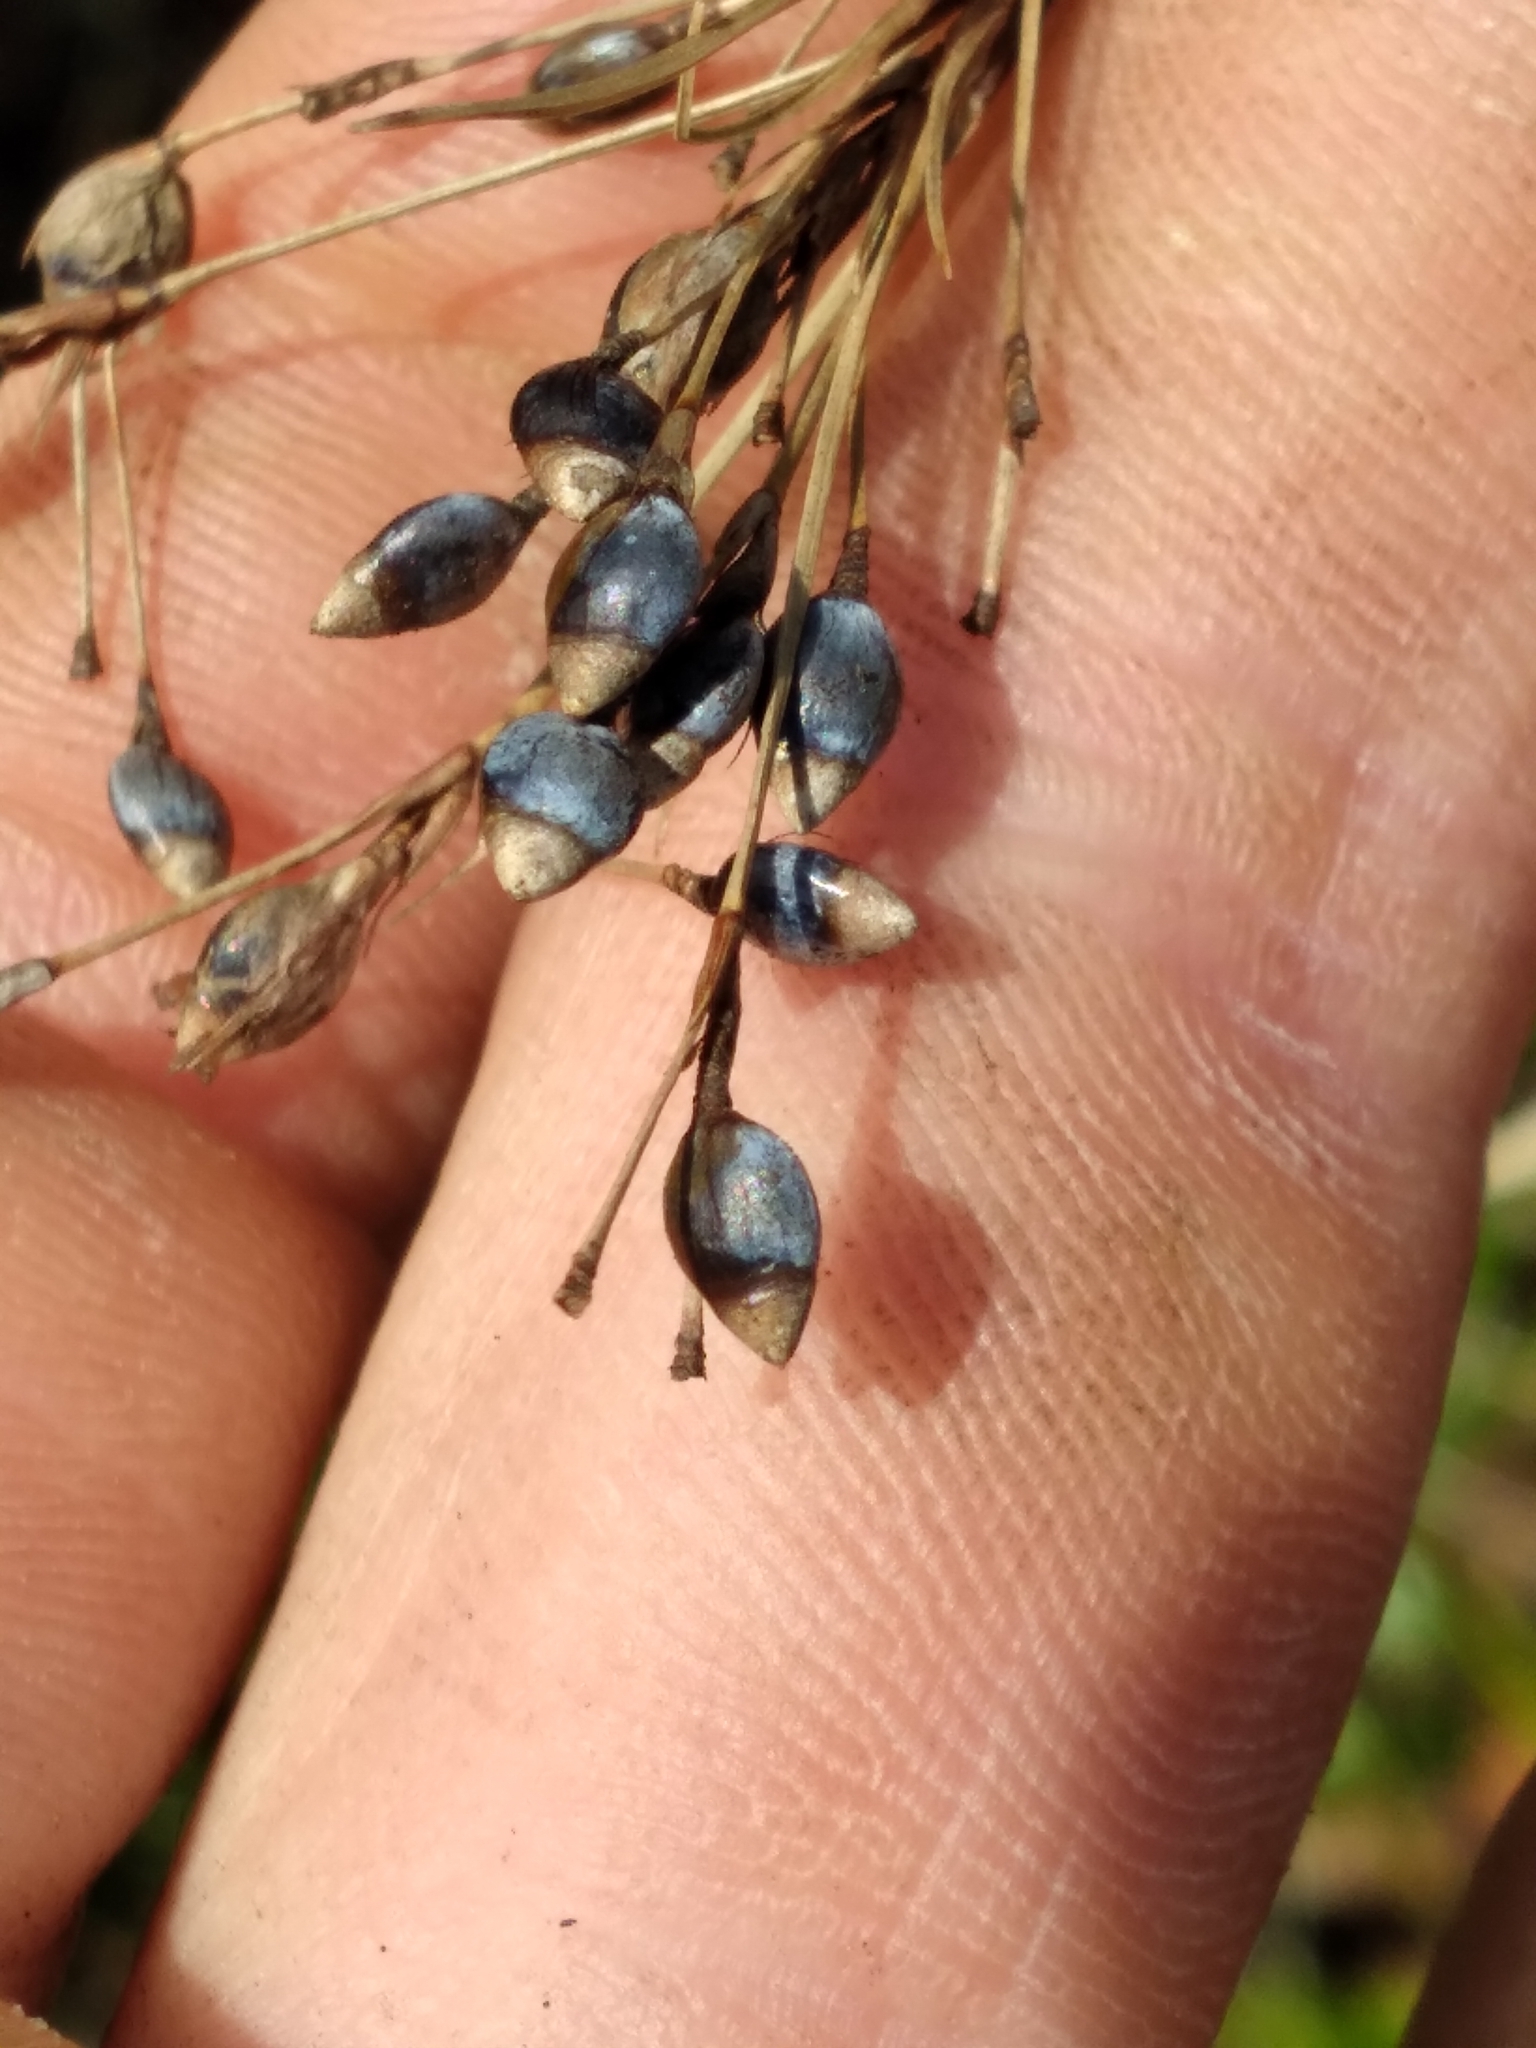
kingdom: Plantae
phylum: Tracheophyta
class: Liliopsida
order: Poales
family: Cyperaceae
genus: Rhynchospora
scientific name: Rhynchospora megalocarpa
